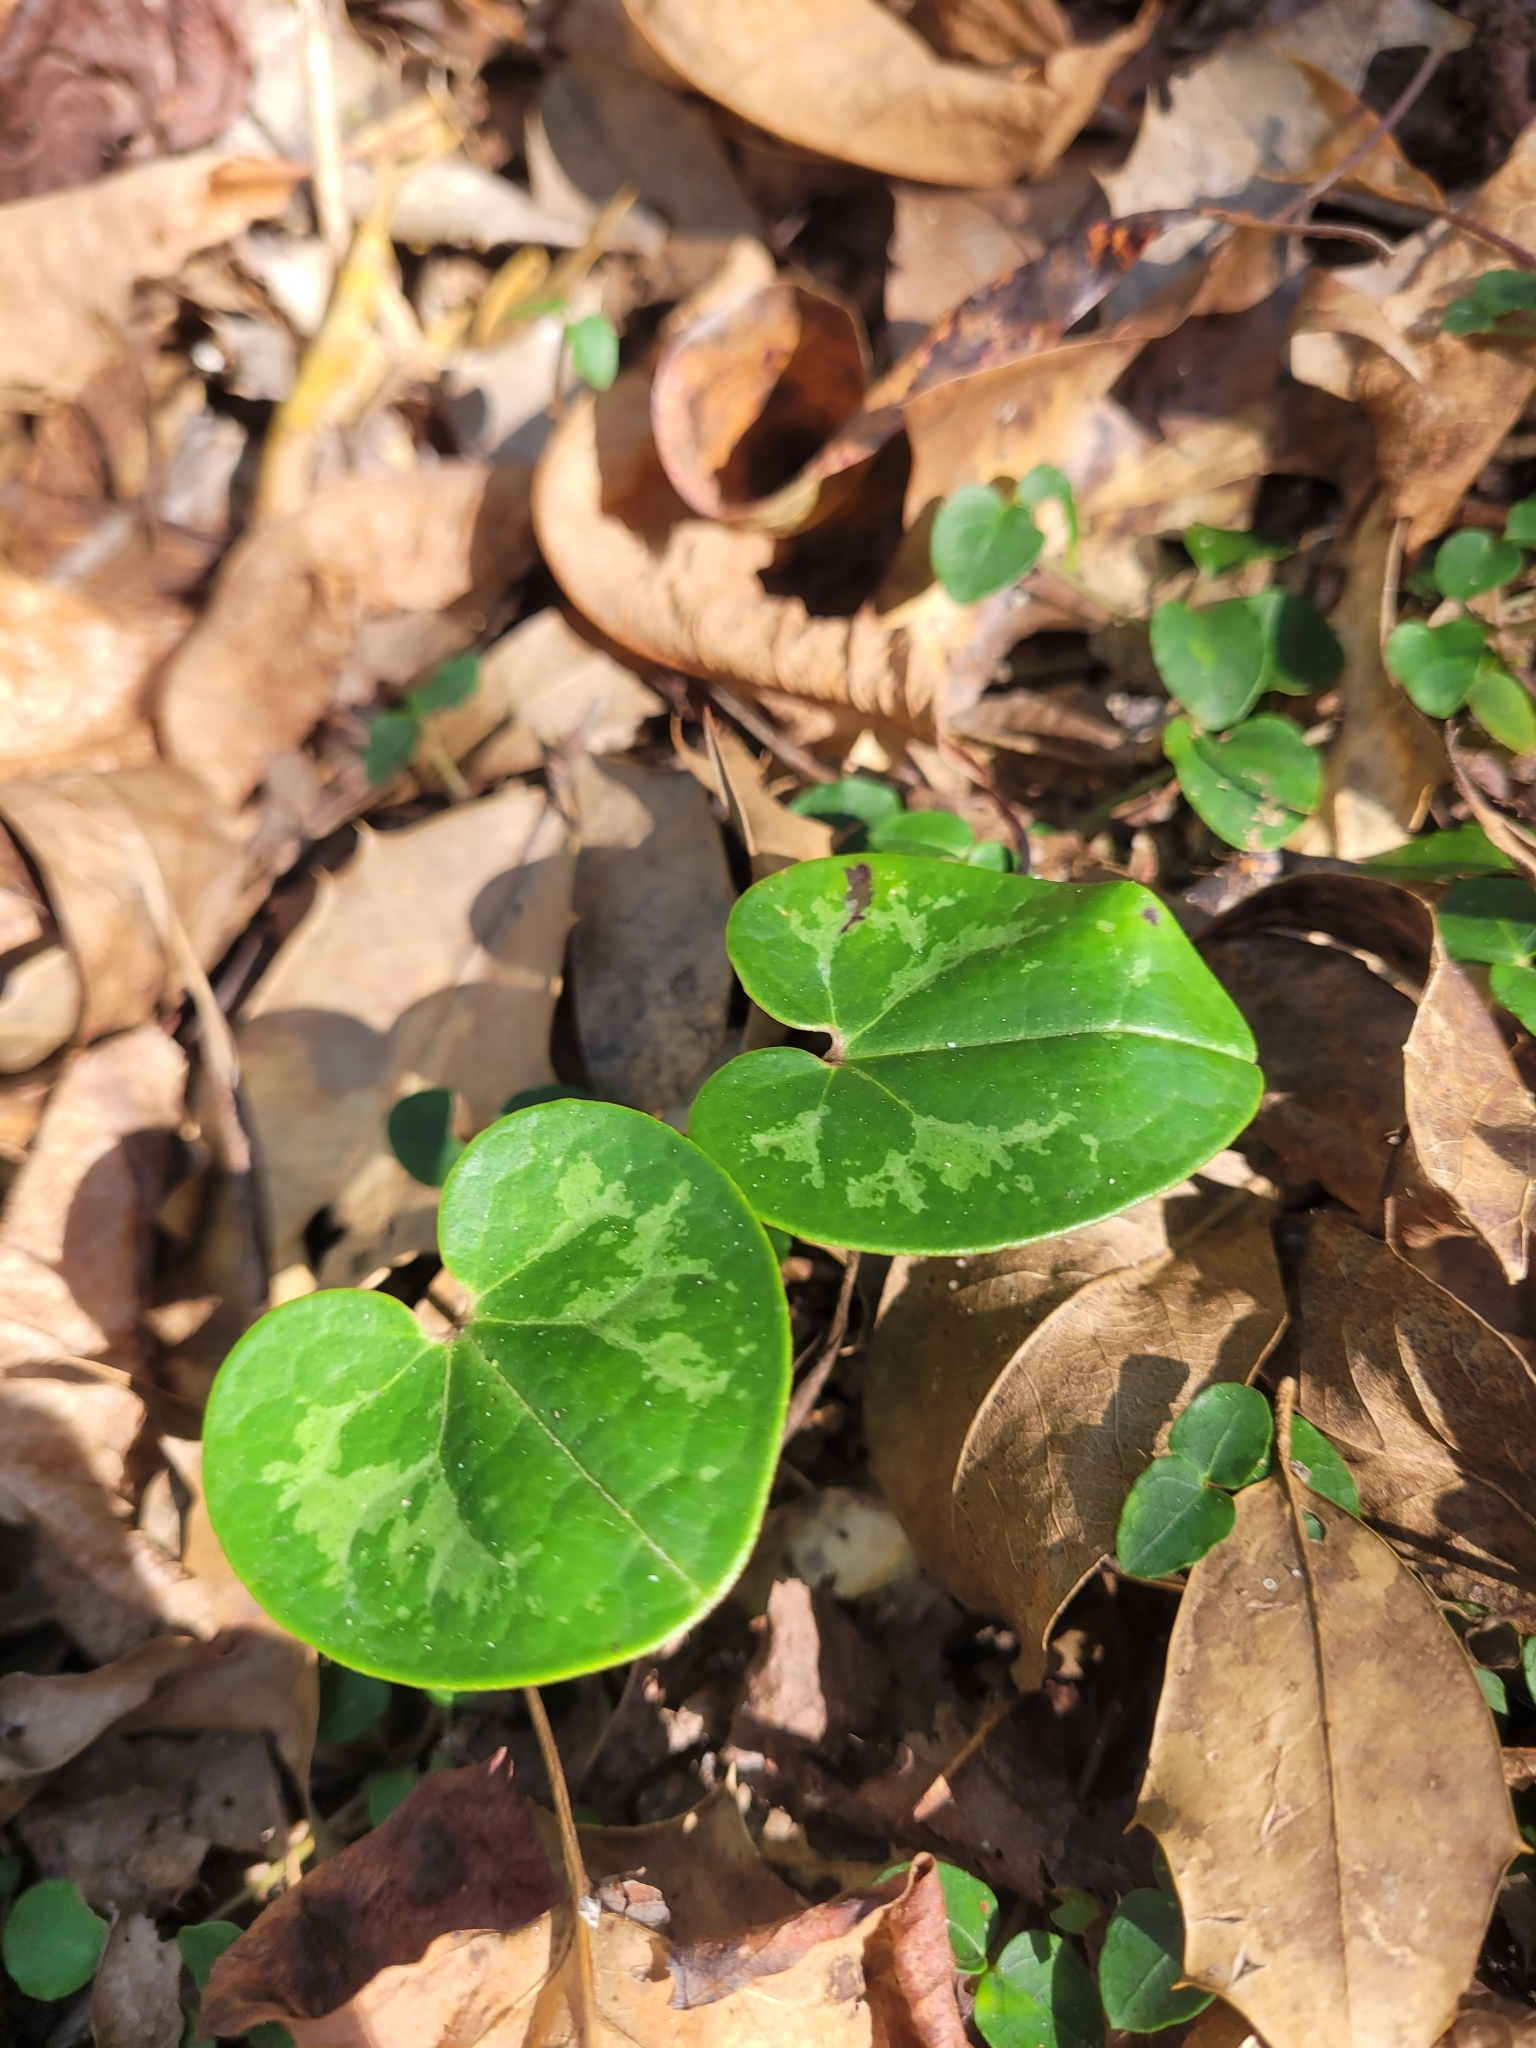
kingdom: Plantae
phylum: Tracheophyta
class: Magnoliopsida
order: Piperales
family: Aristolochiaceae
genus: Hexastylis
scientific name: Hexastylis sorriei
